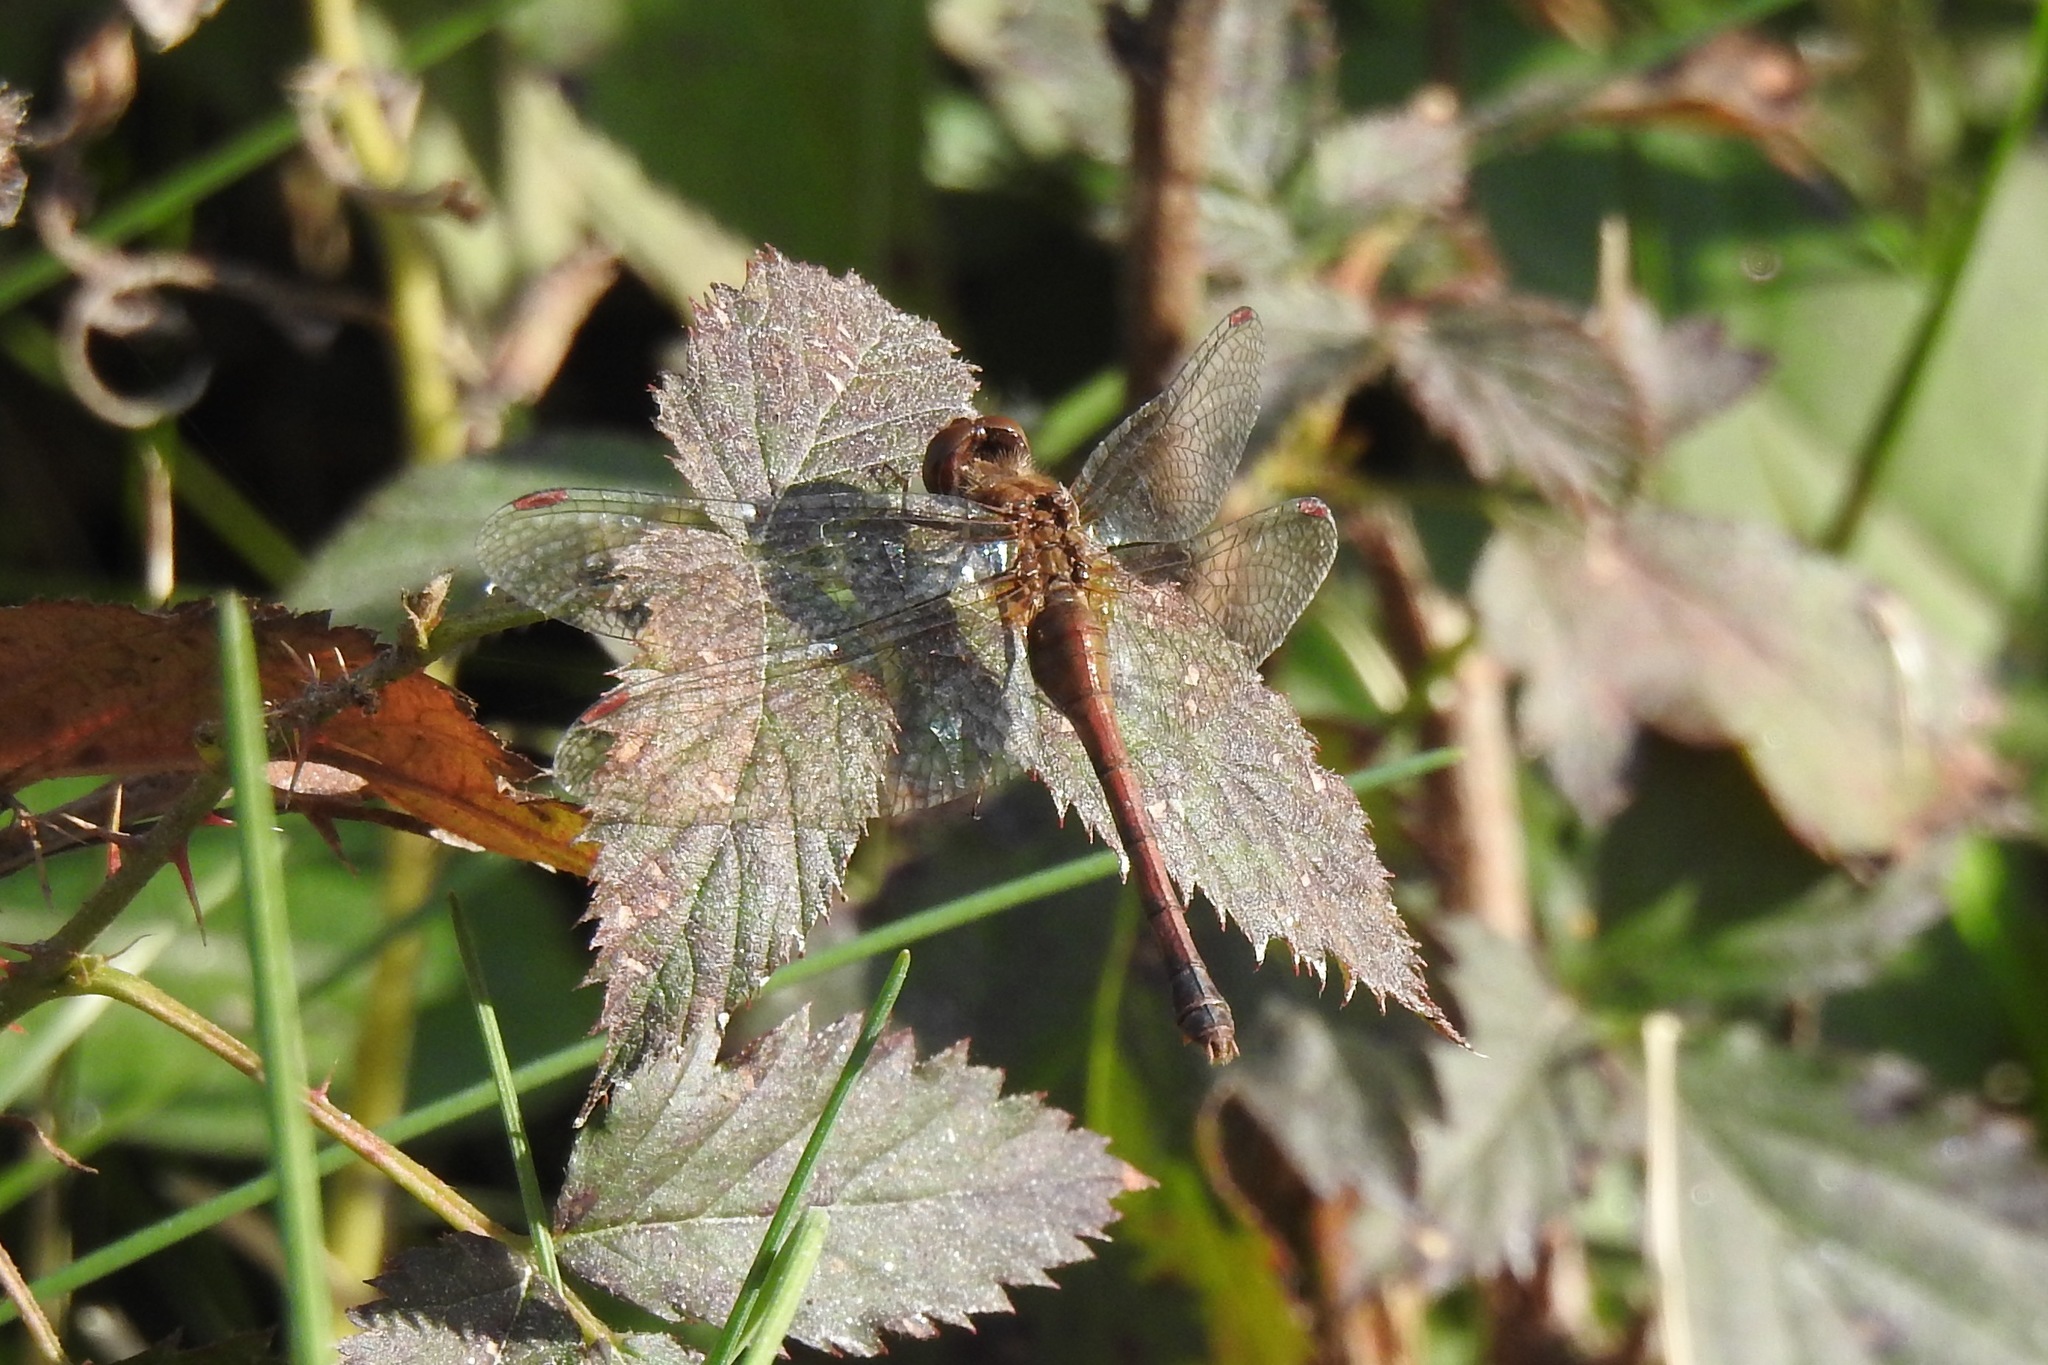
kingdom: Animalia
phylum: Arthropoda
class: Insecta
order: Odonata
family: Libellulidae
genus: Sympetrum
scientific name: Sympetrum vicinum
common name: Autumn meadowhawk
